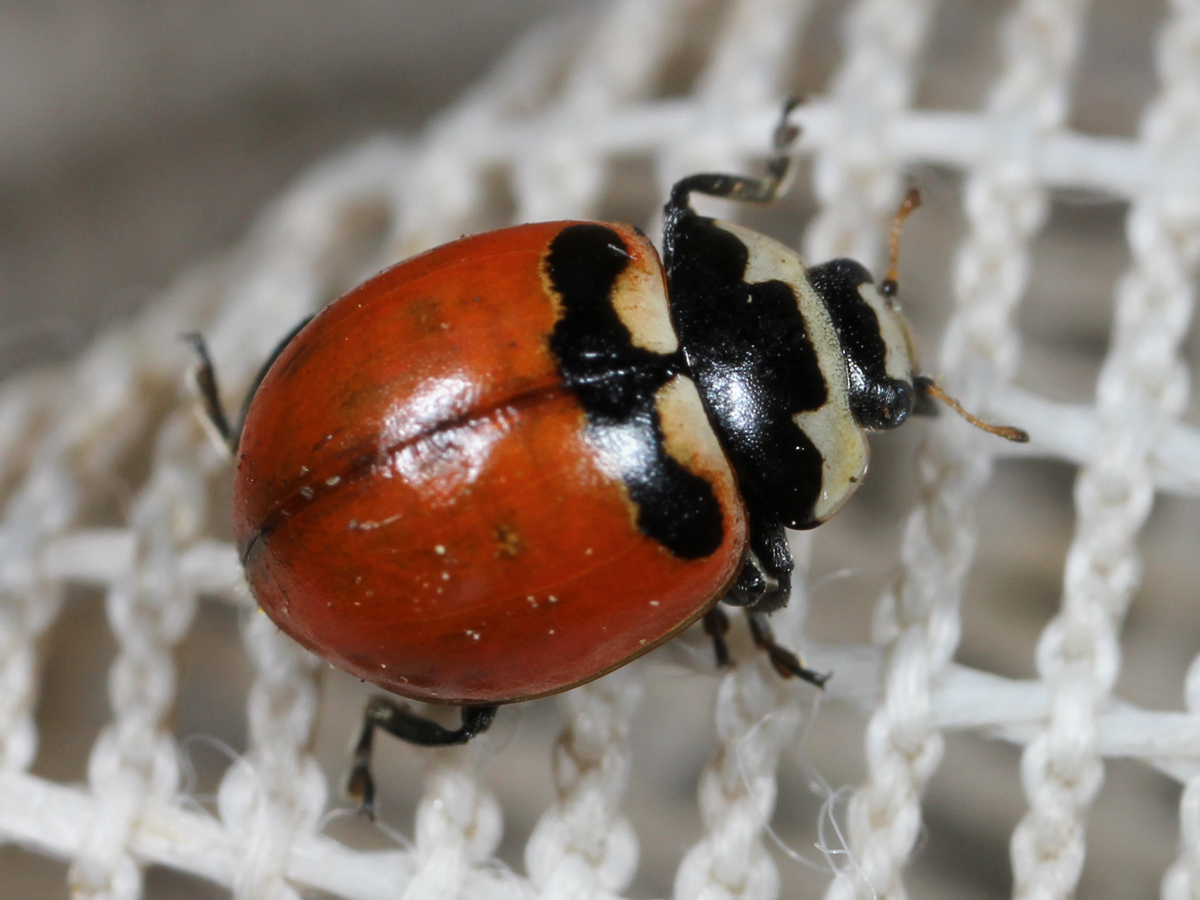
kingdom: Animalia
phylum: Arthropoda
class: Insecta
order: Coleoptera
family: Coccinellidae
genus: Coccinella
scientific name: Coccinella trifasciata
